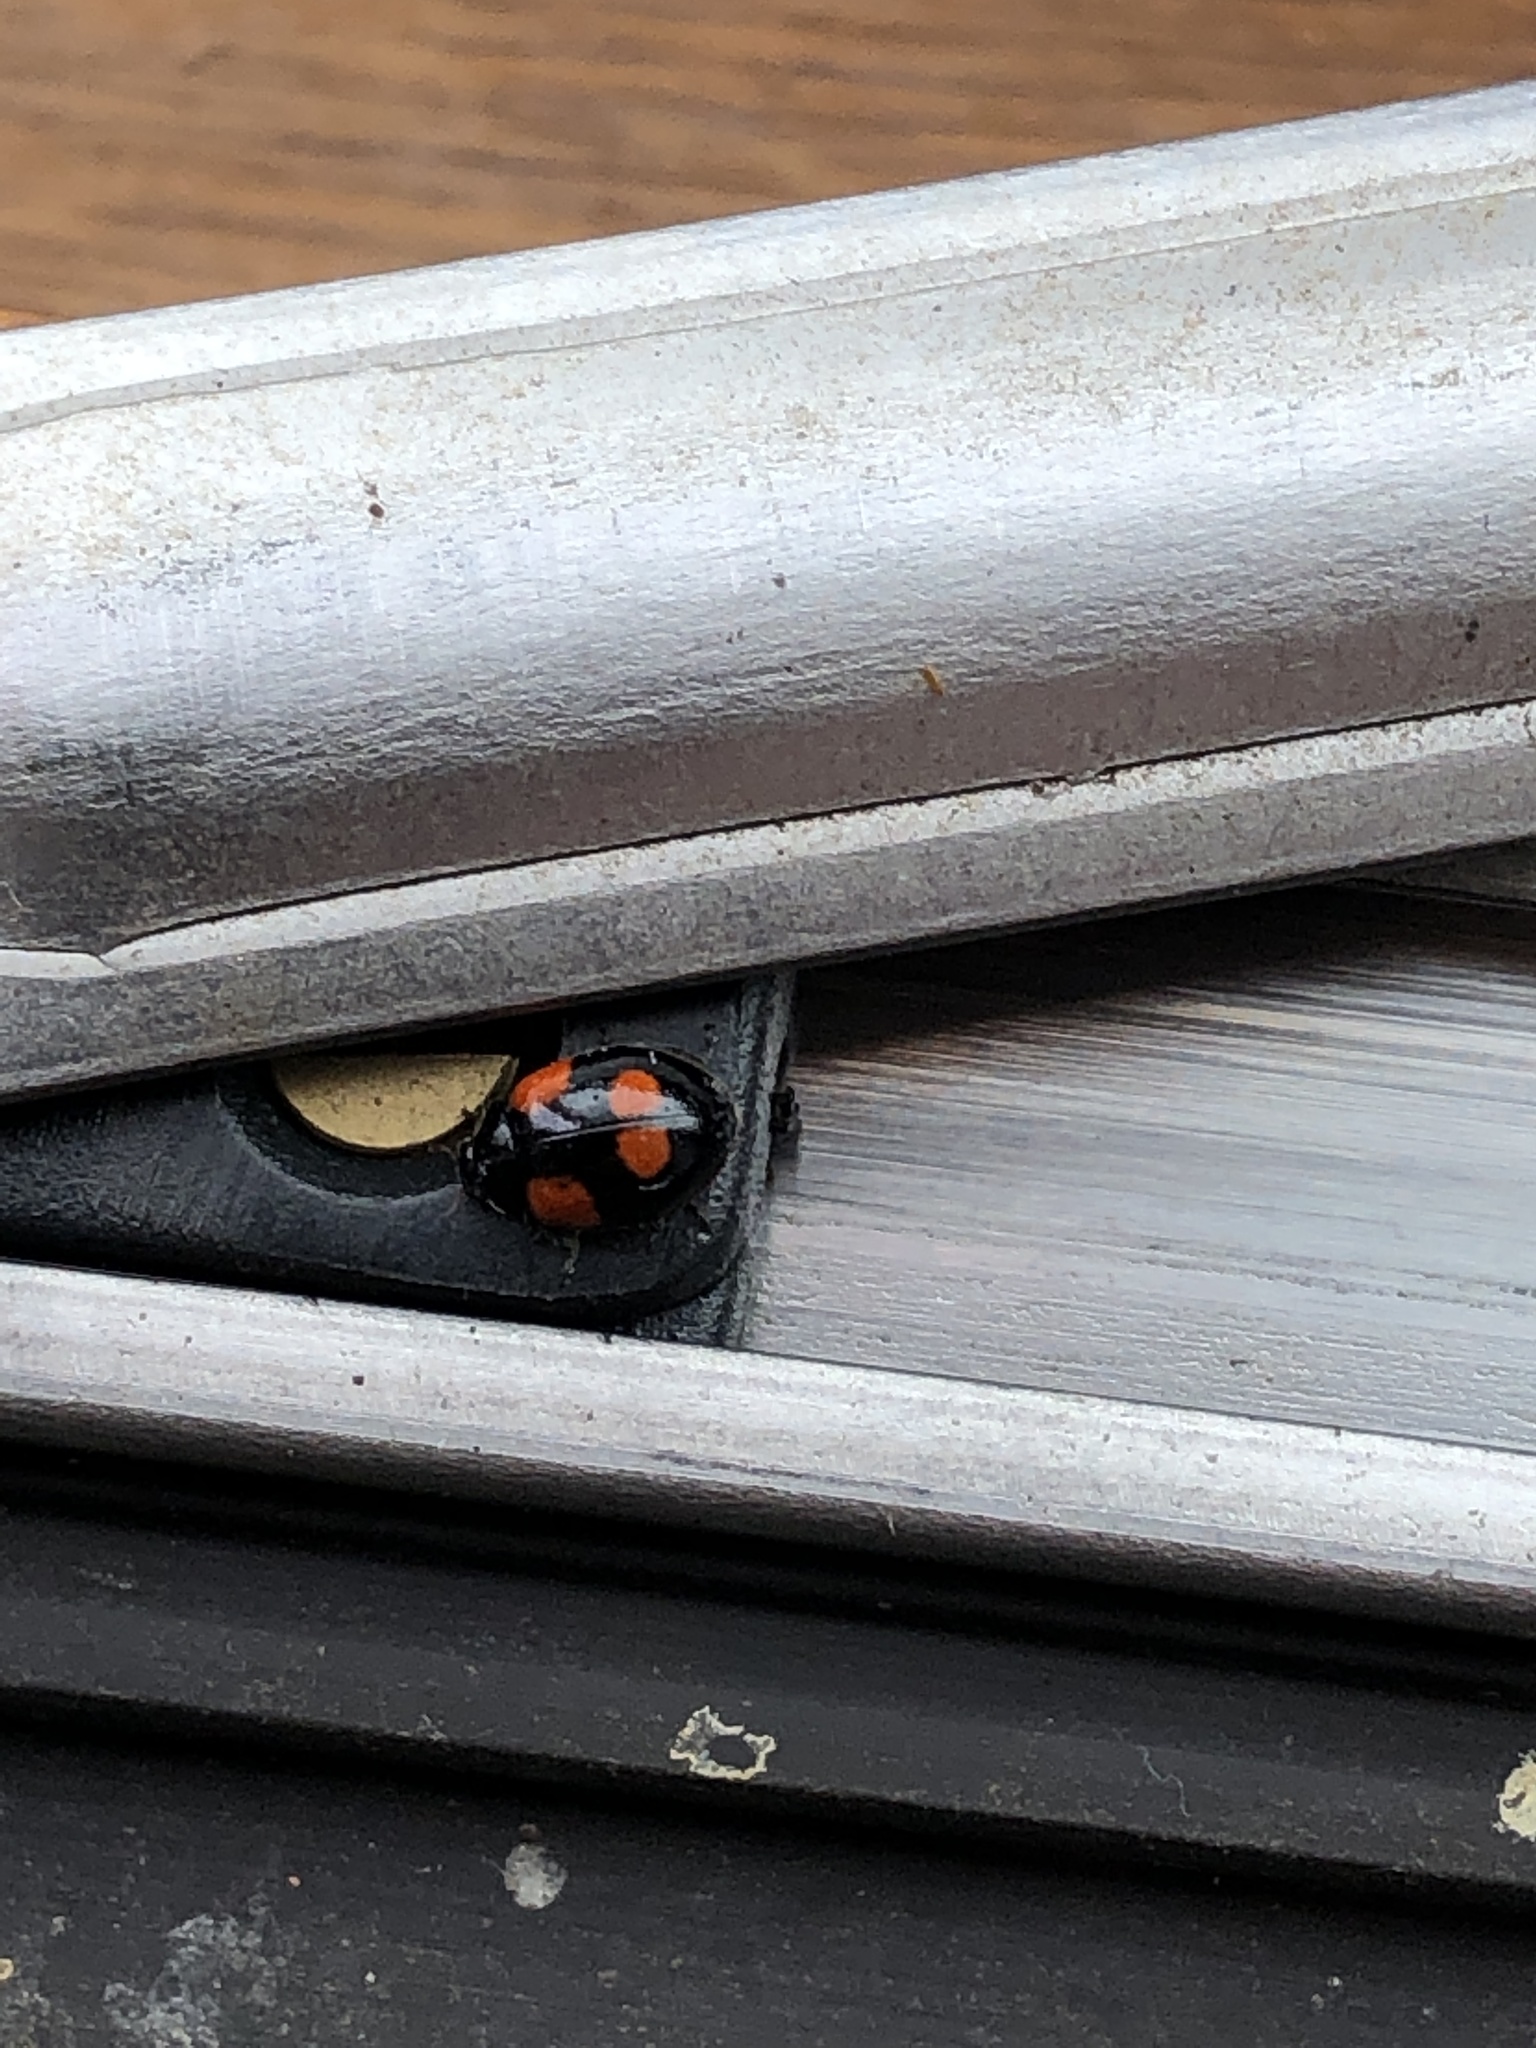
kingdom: Animalia
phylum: Arthropoda
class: Insecta
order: Coleoptera
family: Coccinellidae
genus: Adalia
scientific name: Adalia bipunctata
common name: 2-spot ladybird
